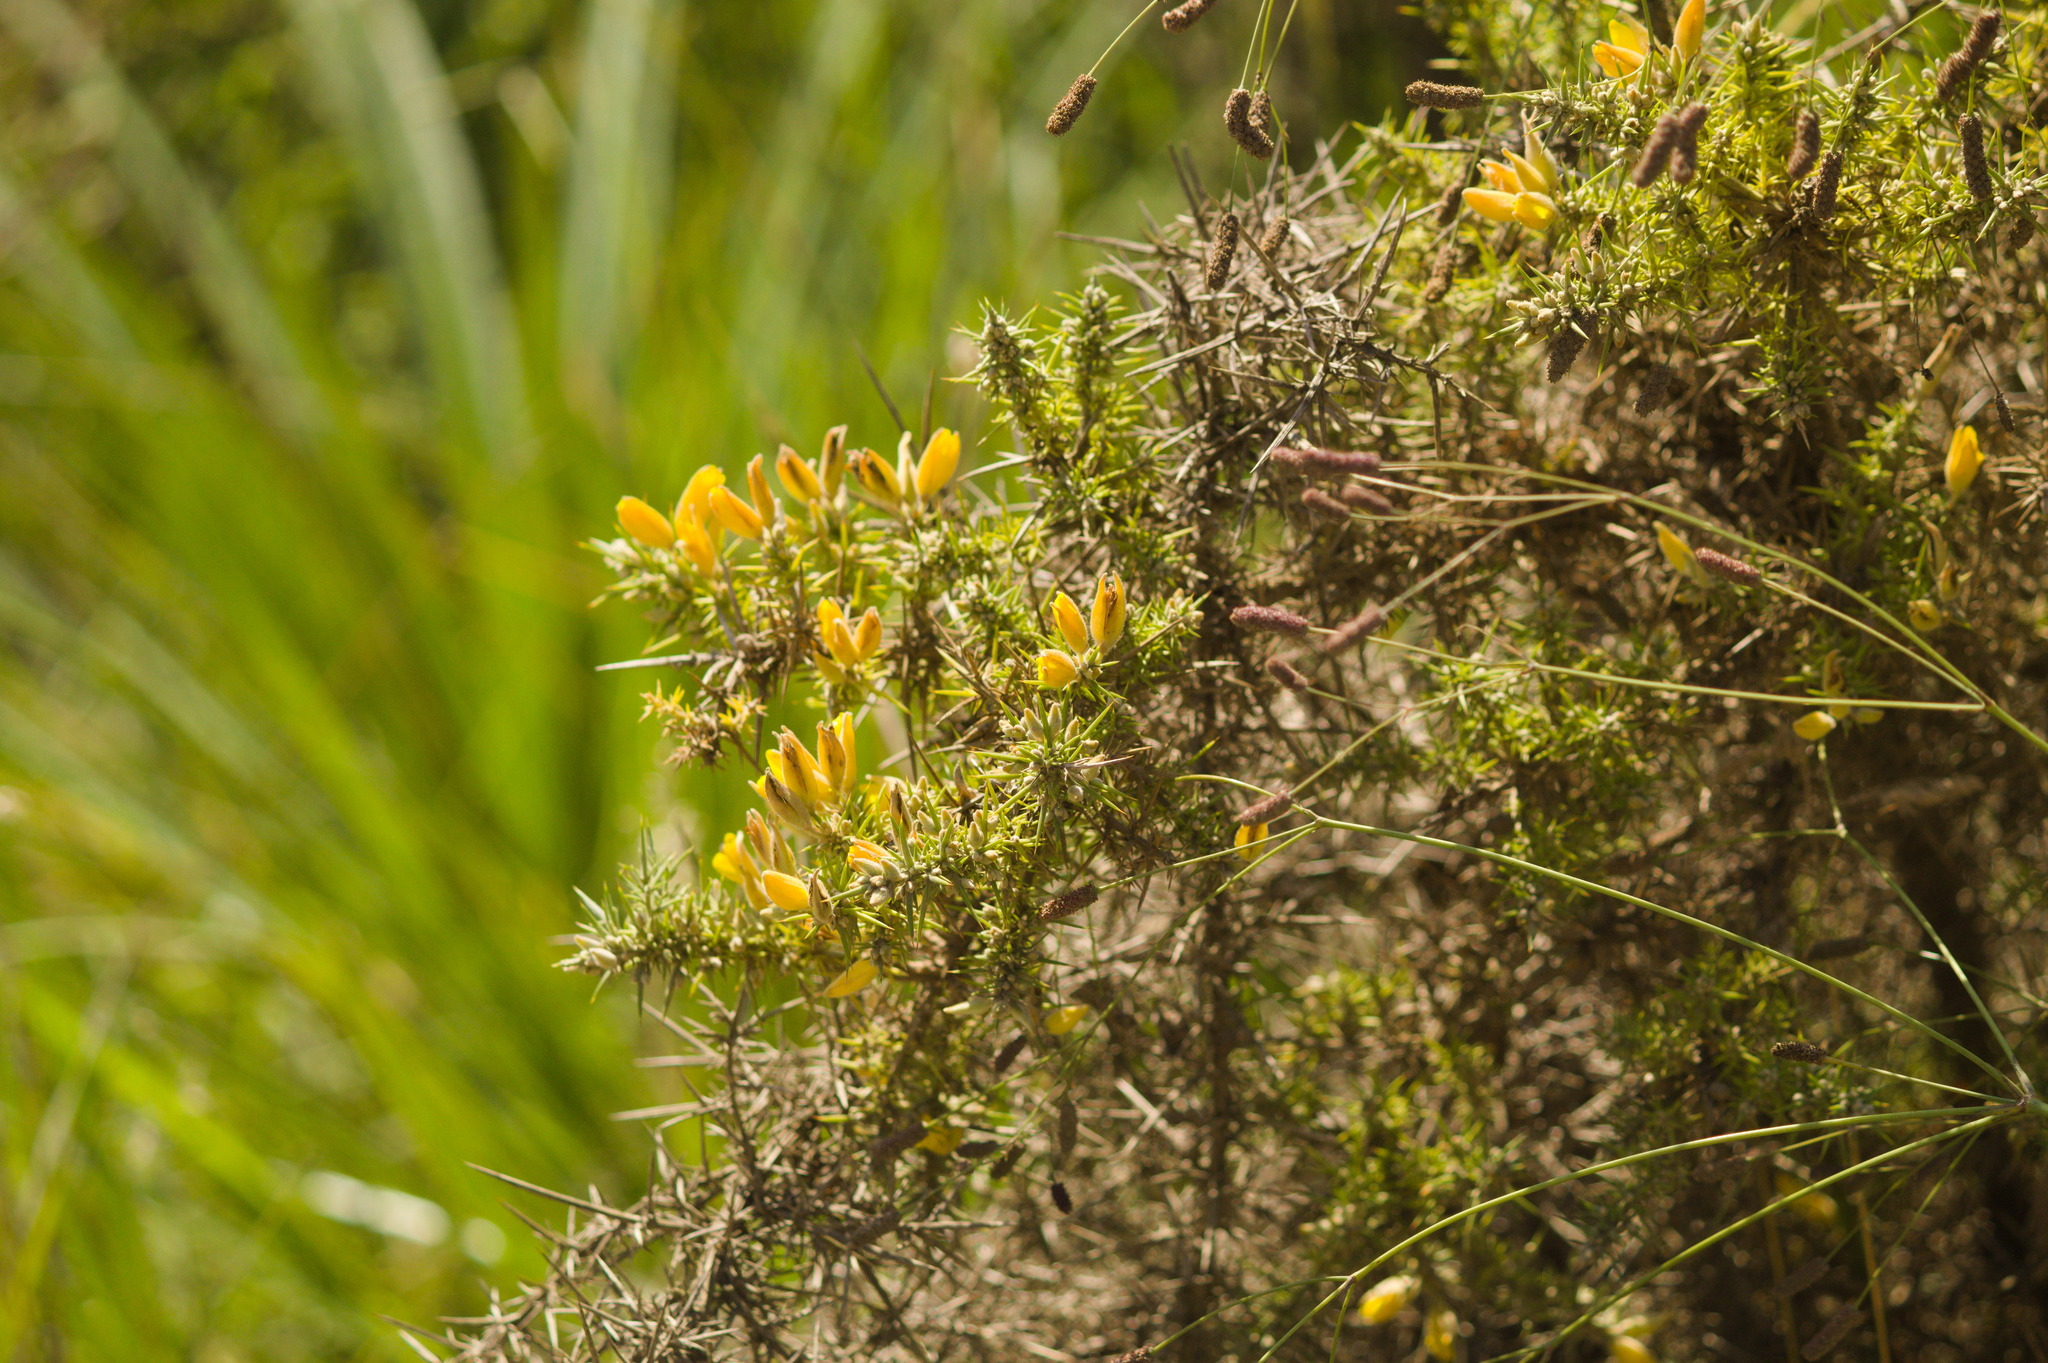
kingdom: Plantae
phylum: Tracheophyta
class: Magnoliopsida
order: Fabales
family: Fabaceae
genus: Ulex
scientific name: Ulex europaeus
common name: Common gorse
